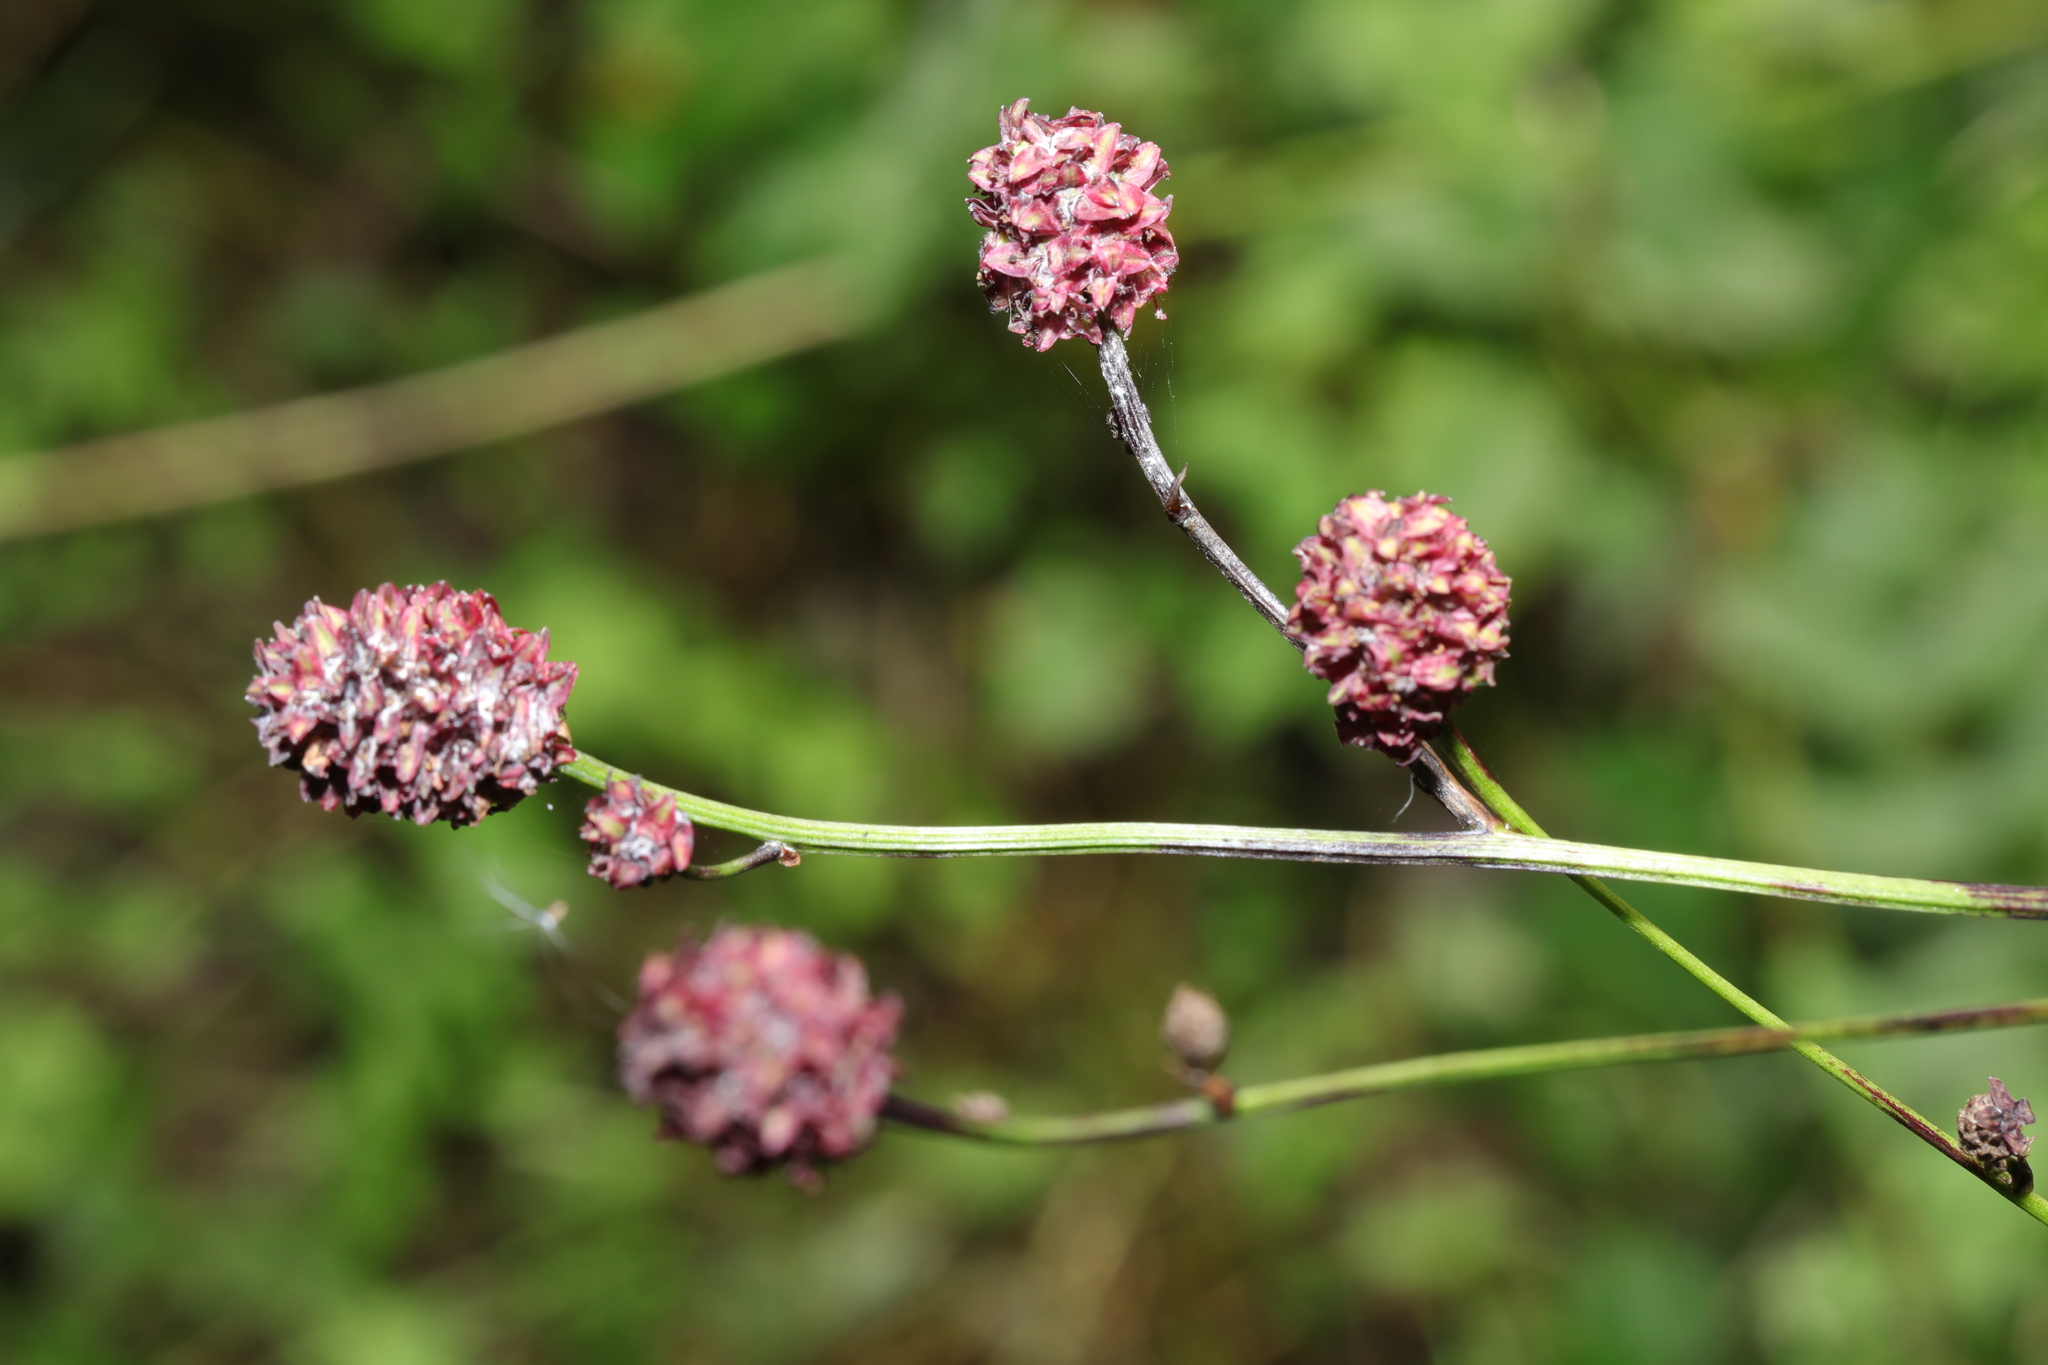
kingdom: Plantae
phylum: Tracheophyta
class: Magnoliopsida
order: Rosales
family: Rosaceae
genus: Sanguisorba
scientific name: Sanguisorba officinalis
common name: Great burnet
